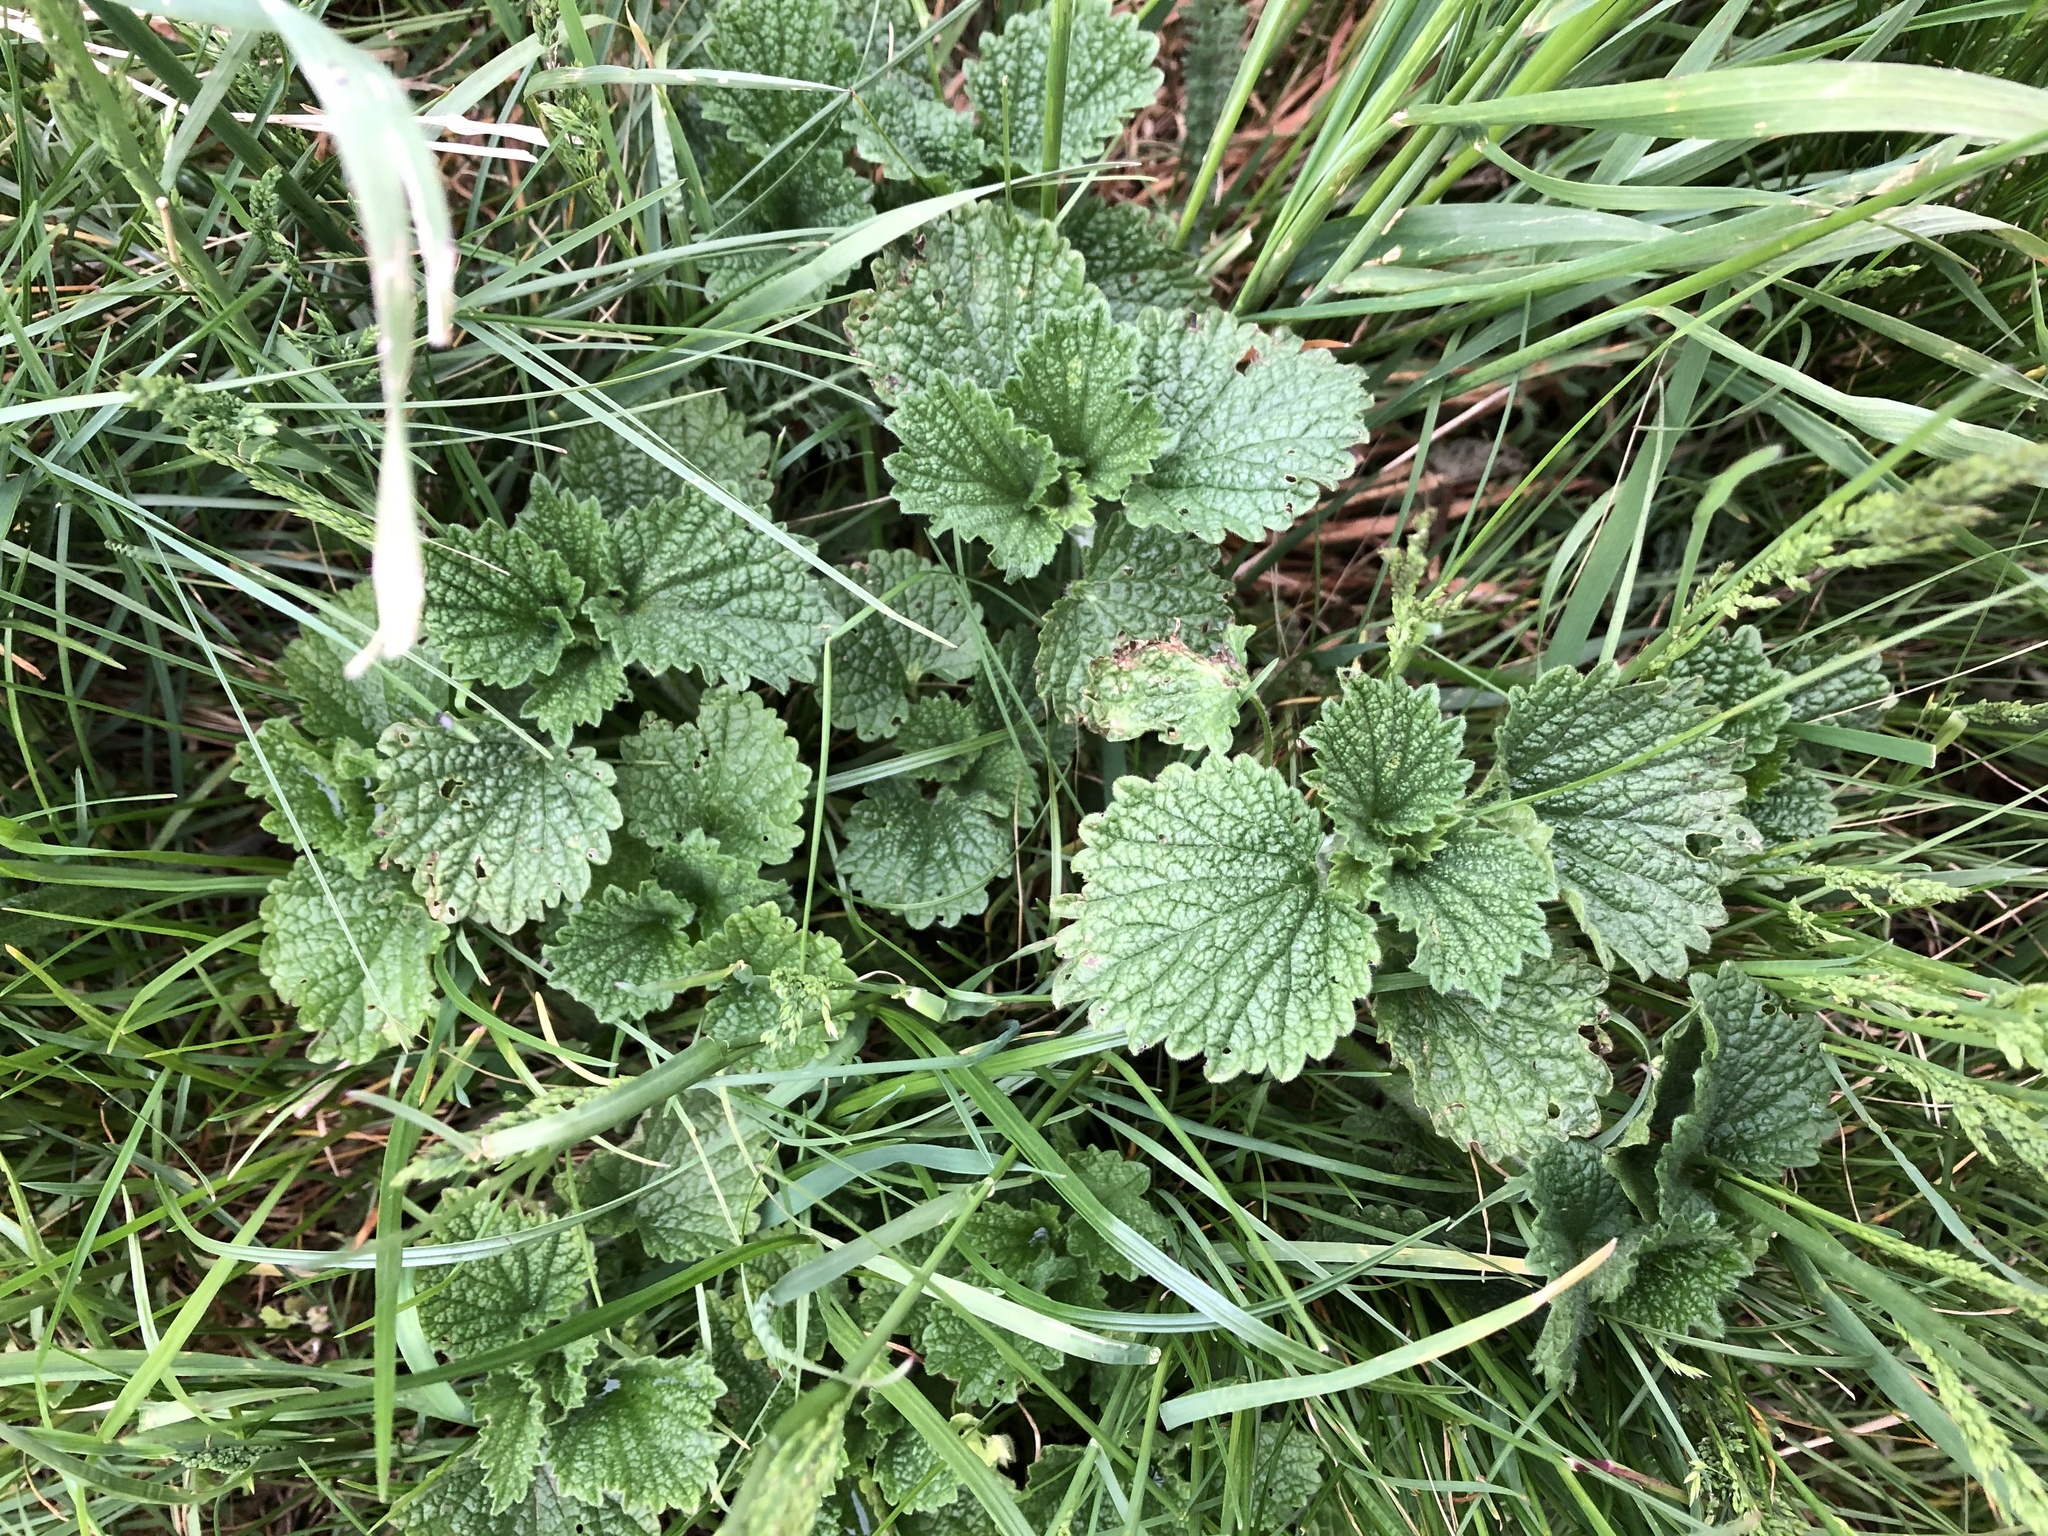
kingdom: Plantae
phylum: Tracheophyta
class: Magnoliopsida
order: Lamiales
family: Lamiaceae
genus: Ballota
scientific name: Ballota nigra
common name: Black horehound
